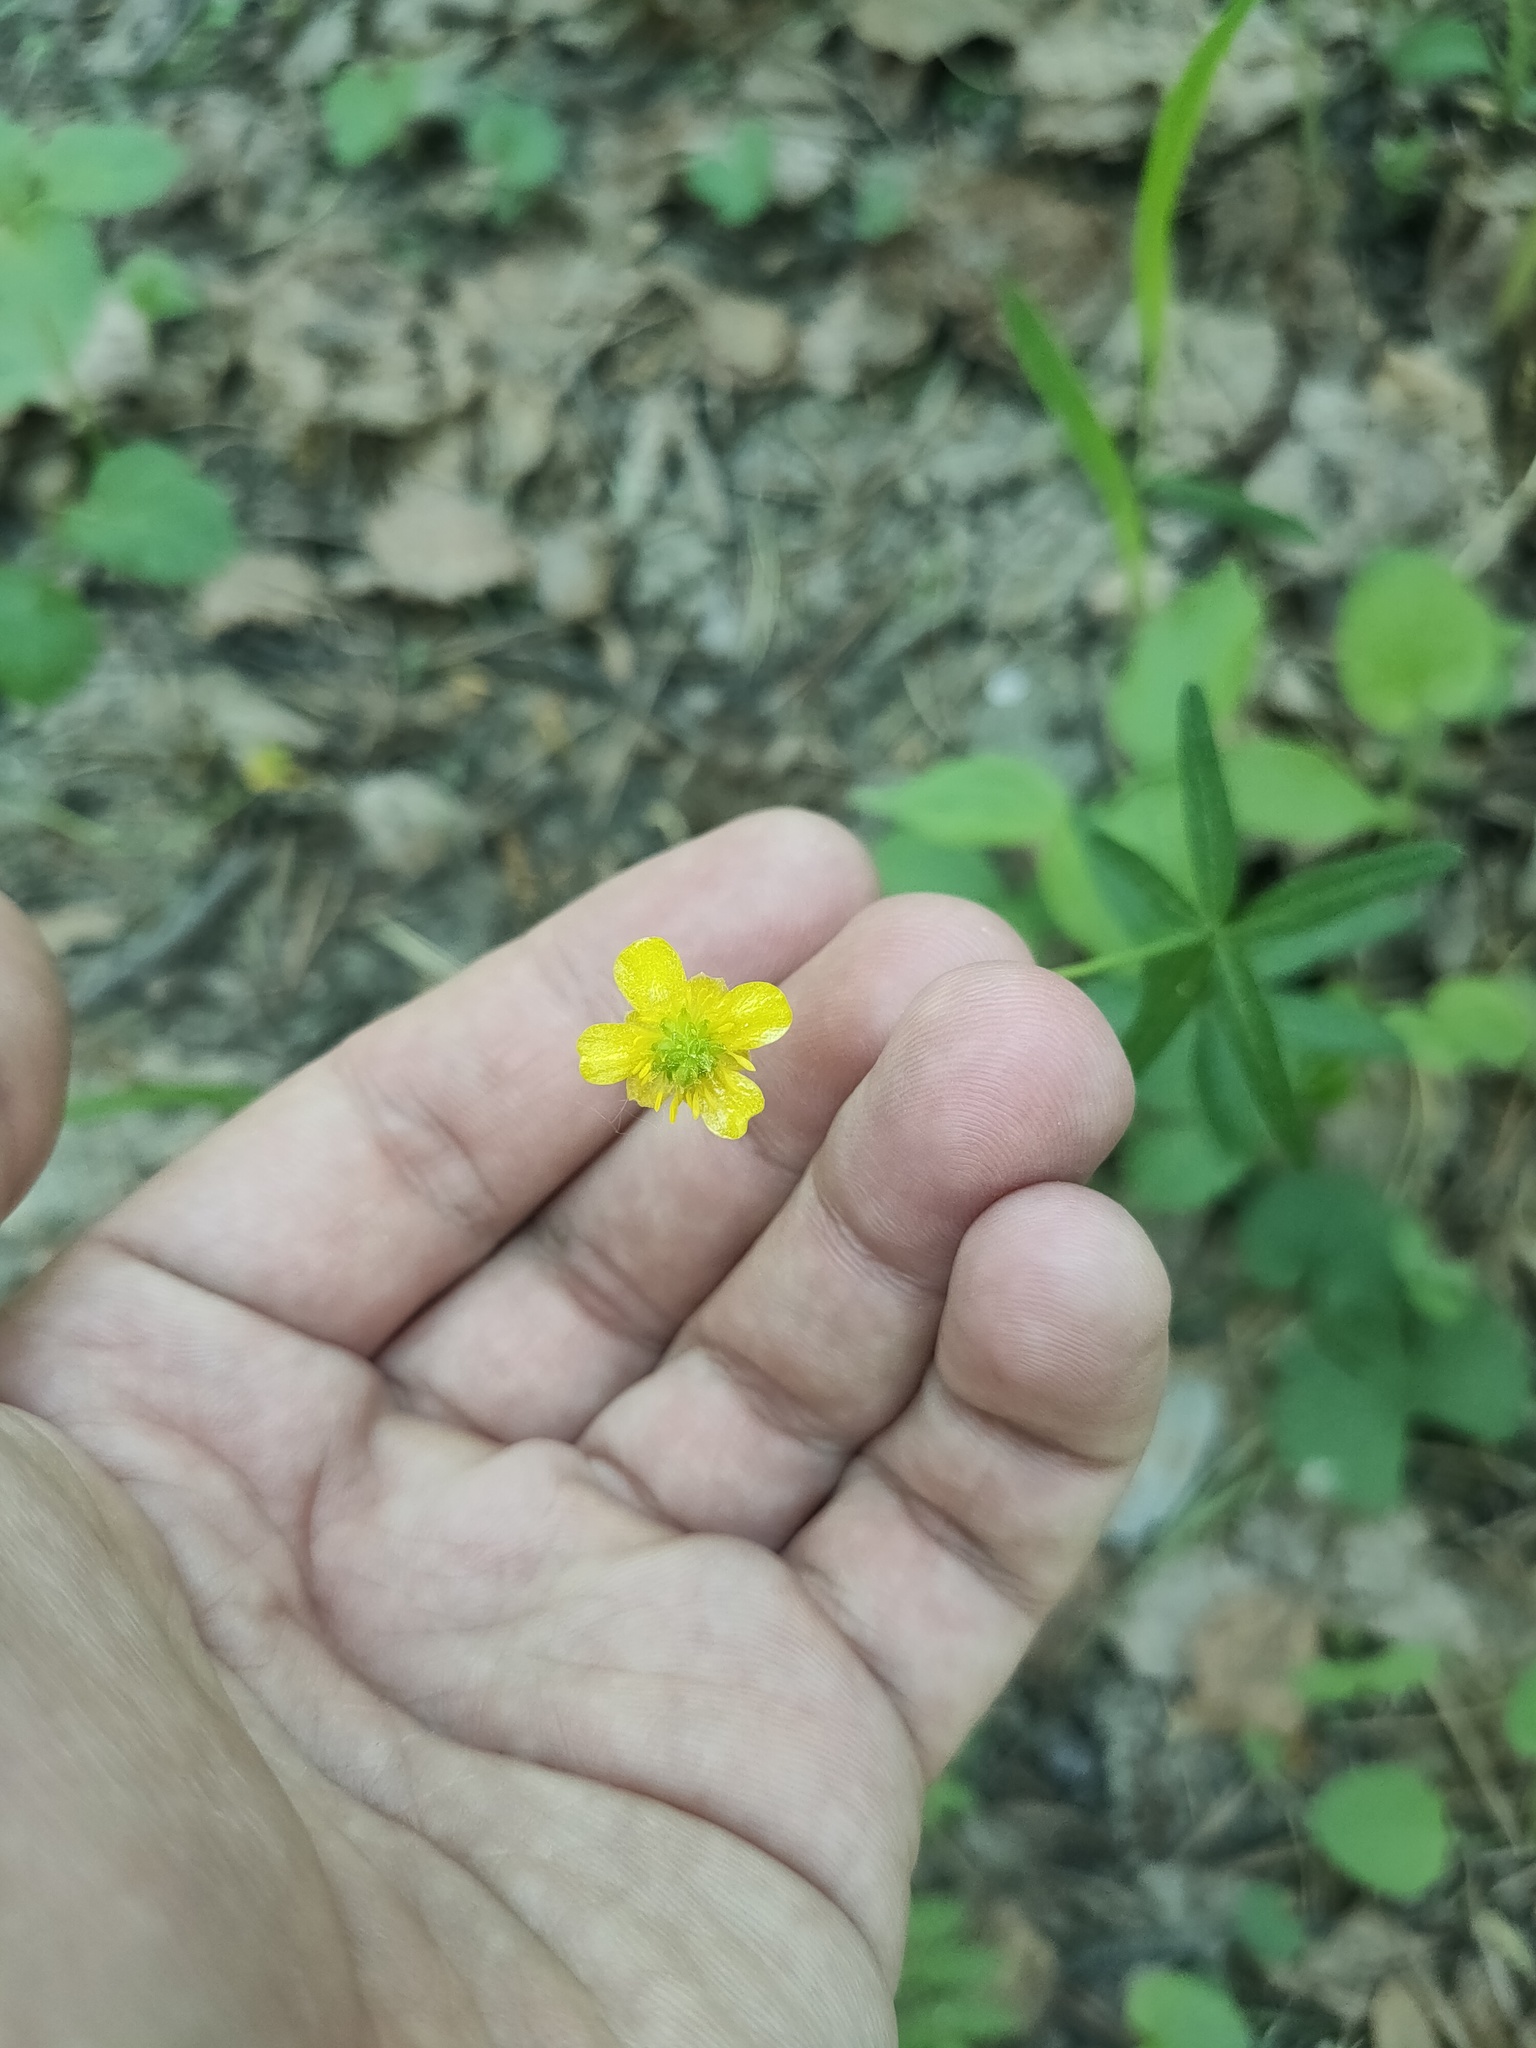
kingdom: Plantae
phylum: Tracheophyta
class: Magnoliopsida
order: Ranunculales
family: Ranunculaceae
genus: Ranunculus
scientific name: Ranunculus monophyllus
